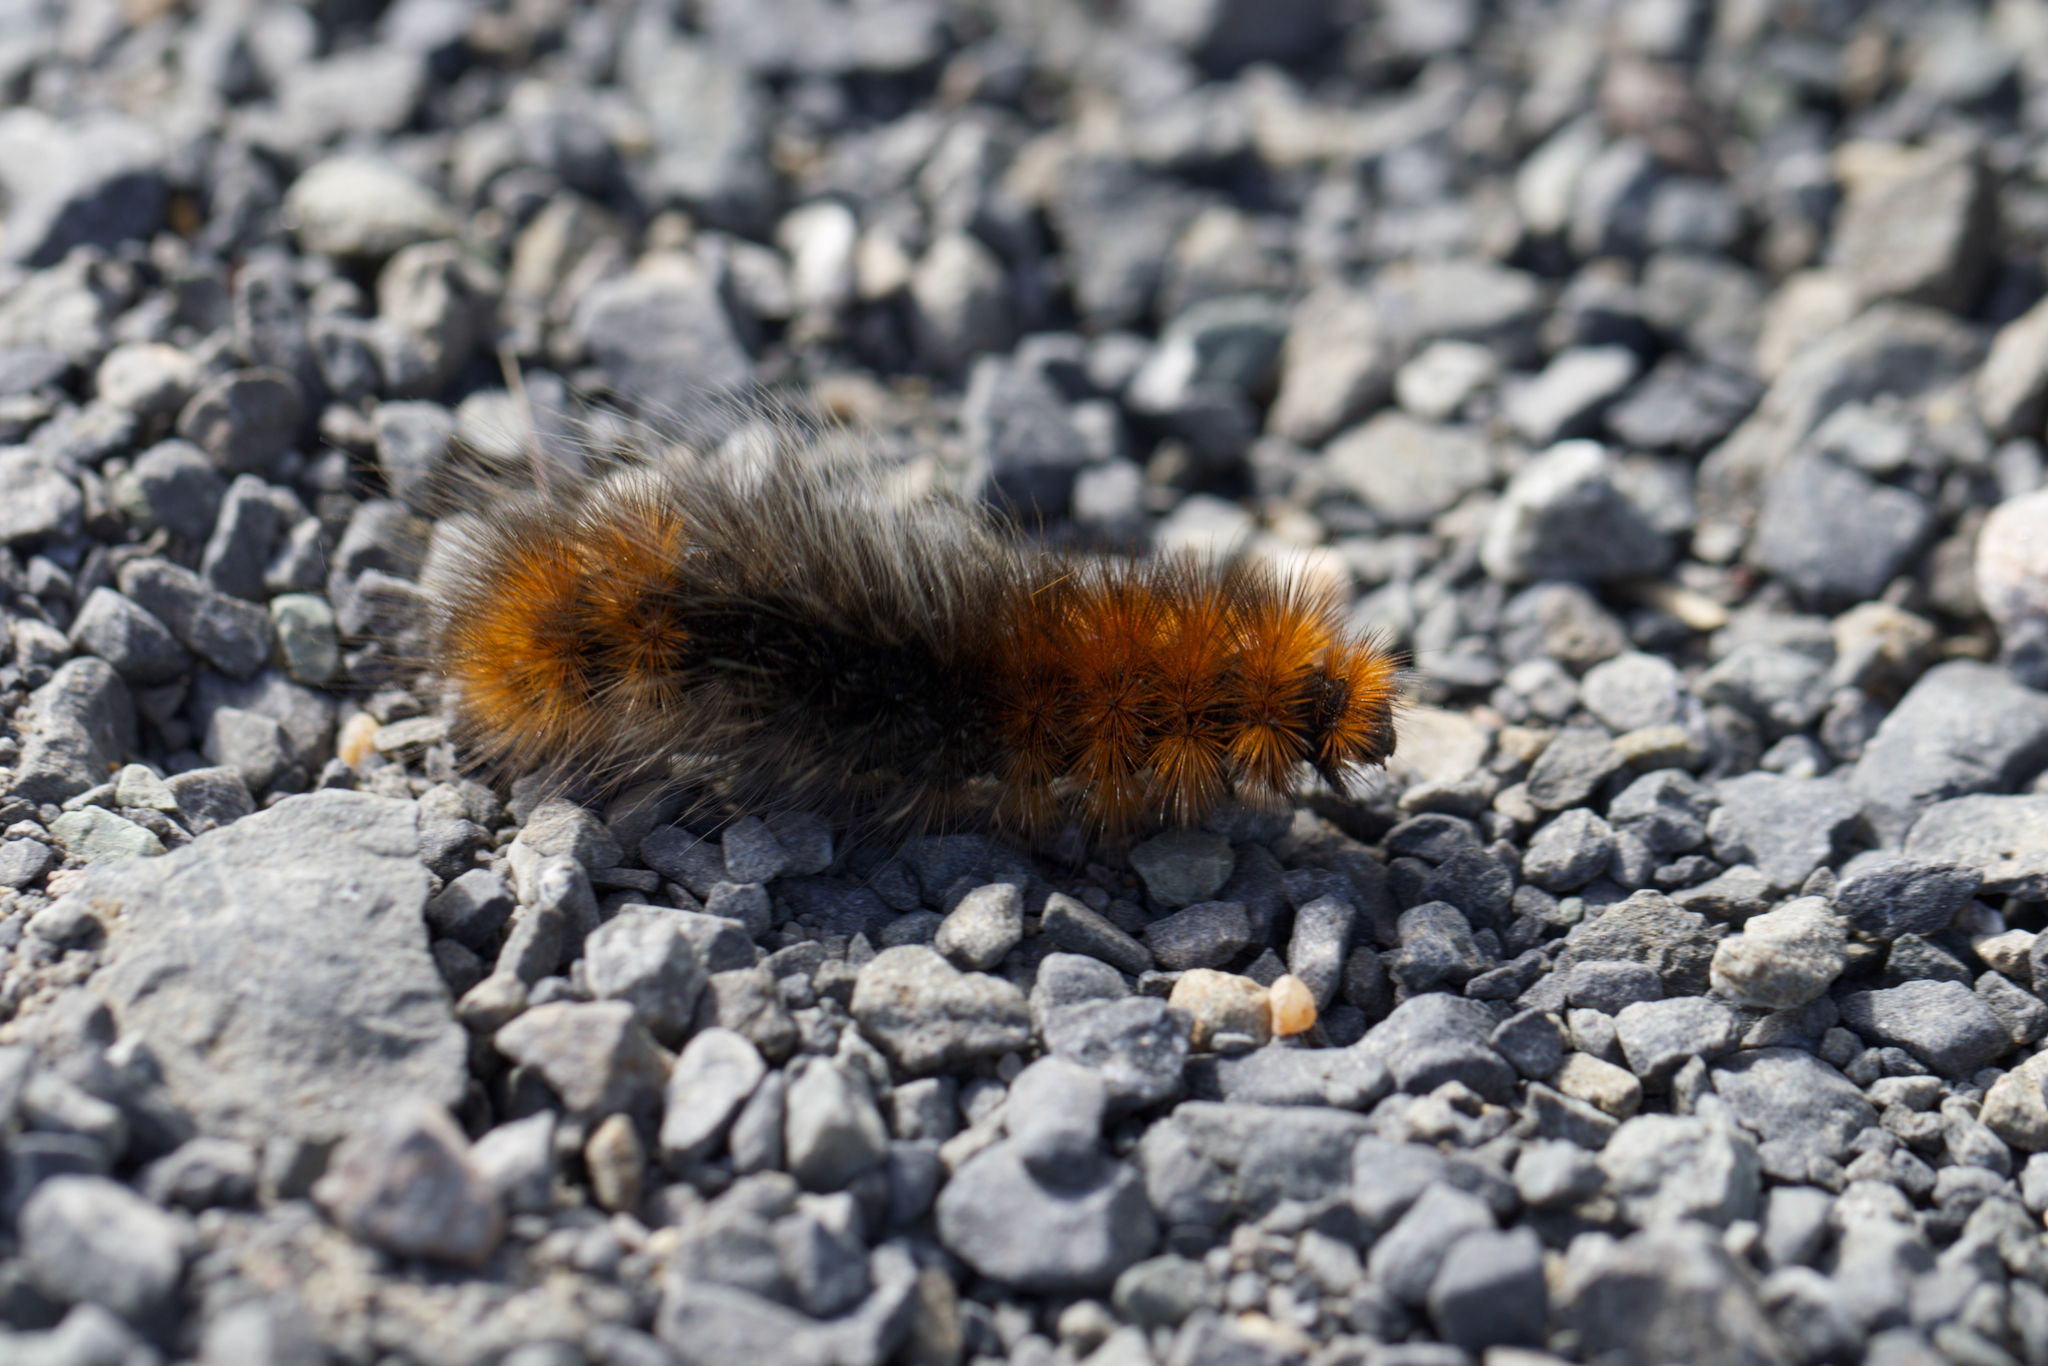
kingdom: Animalia
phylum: Arthropoda
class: Insecta
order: Lepidoptera
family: Erebidae
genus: Arctia
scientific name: Arctia tigrina
